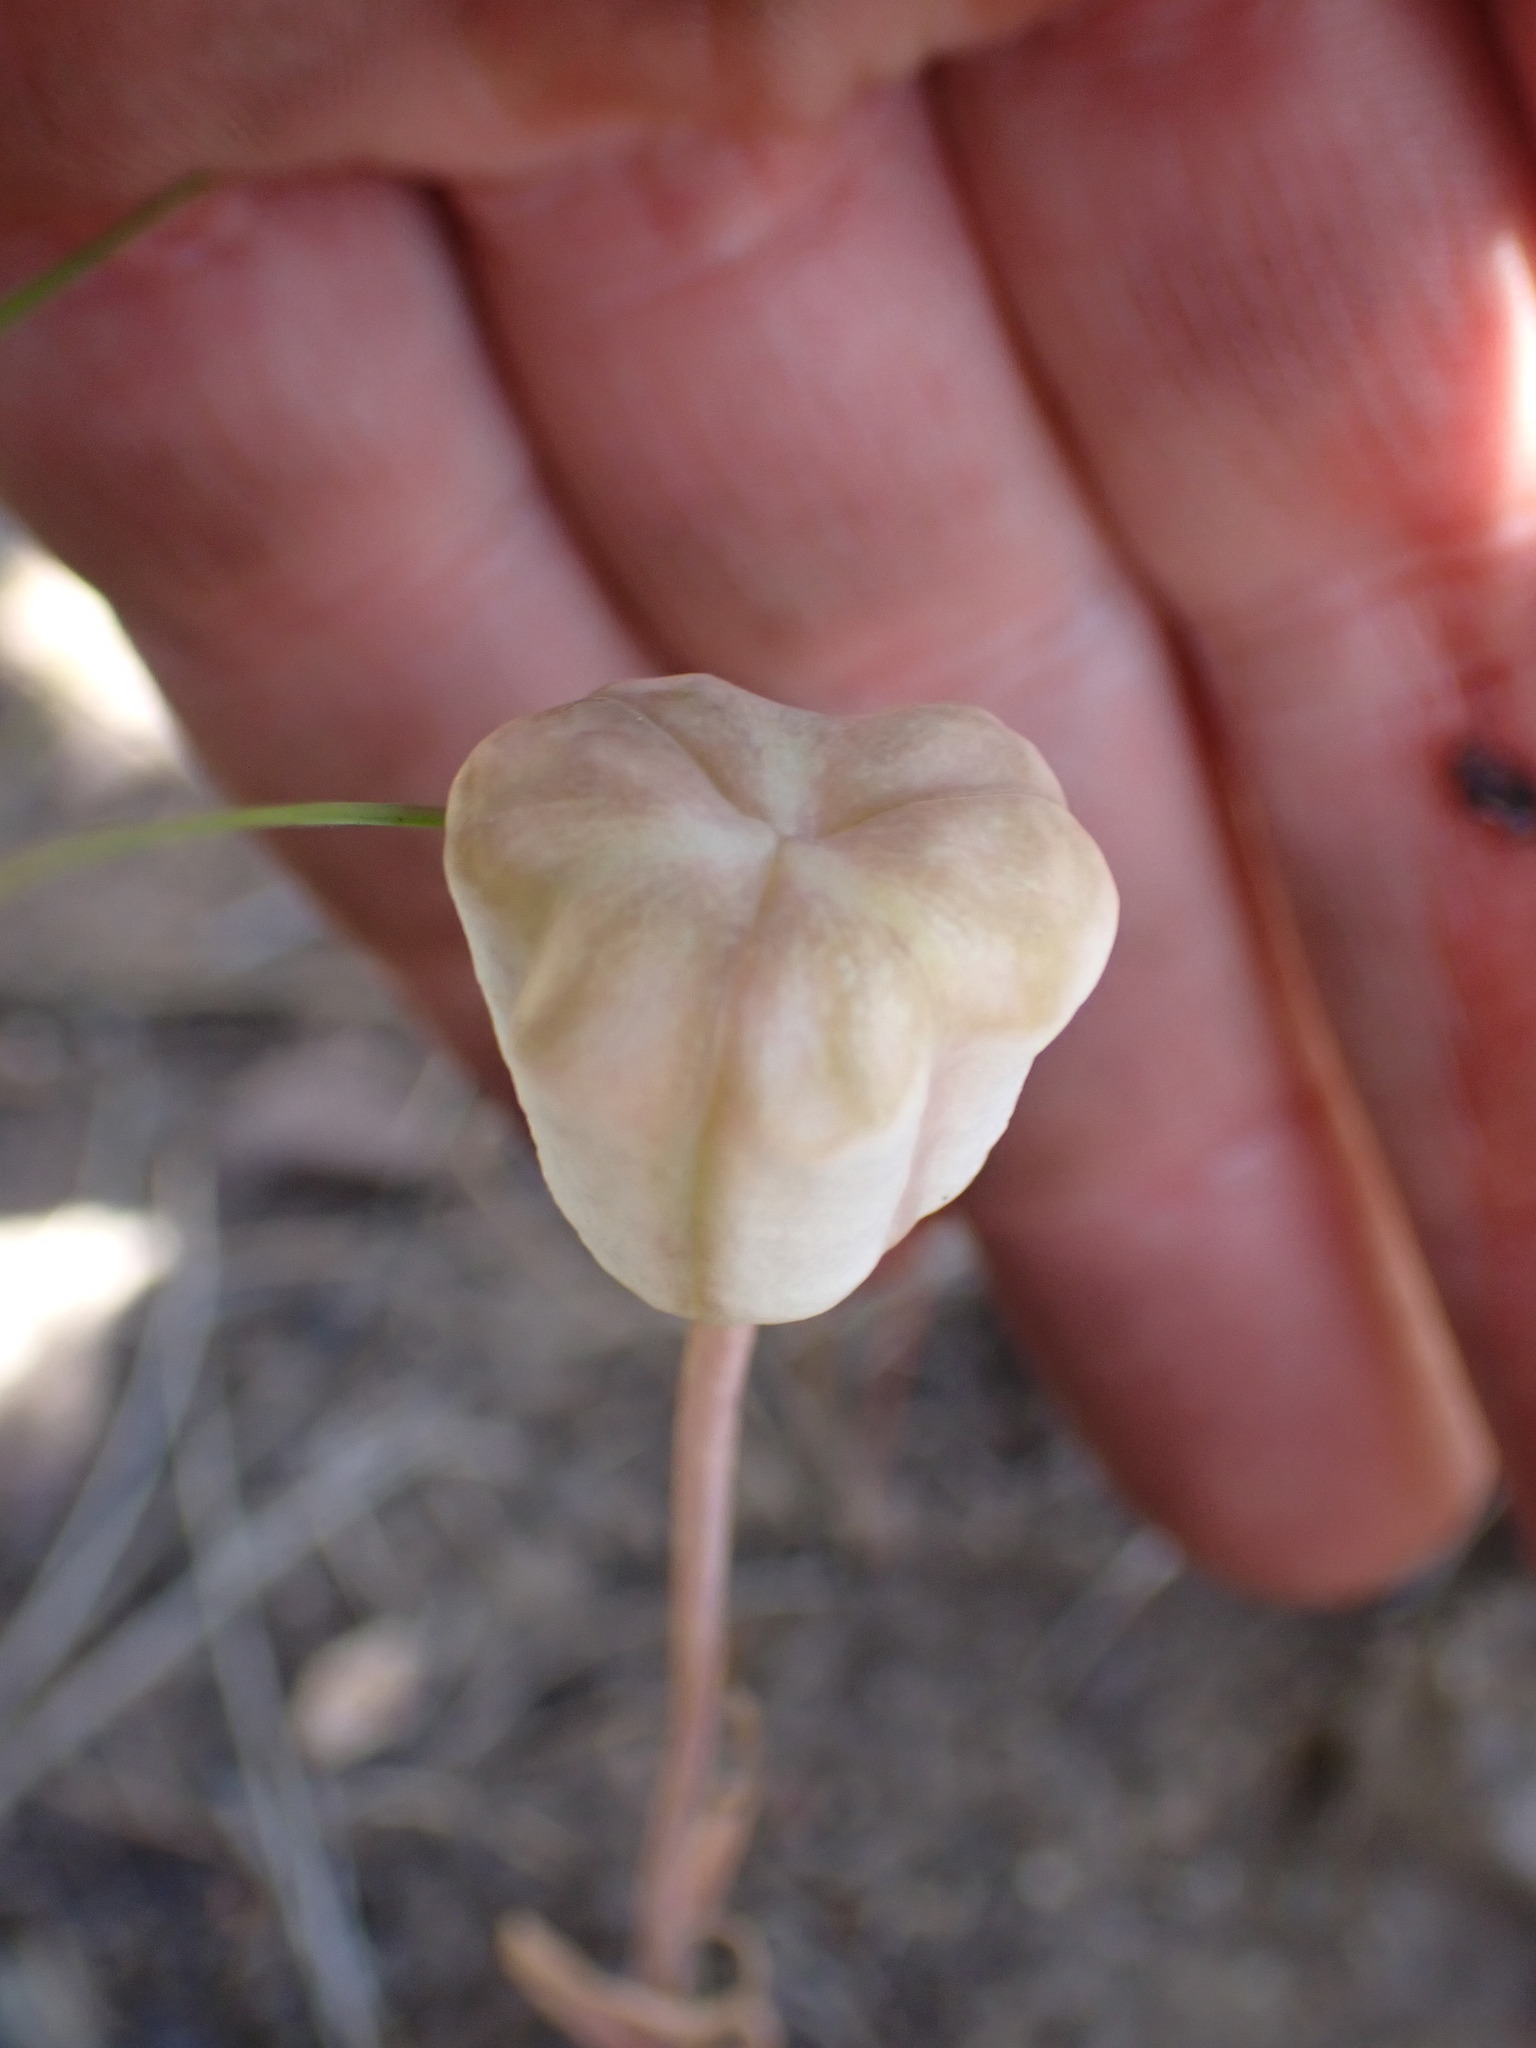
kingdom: Plantae
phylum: Tracheophyta
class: Liliopsida
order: Liliales
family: Liliaceae
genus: Fritillaria
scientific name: Fritillaria pudica
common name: Yellow fritillary
